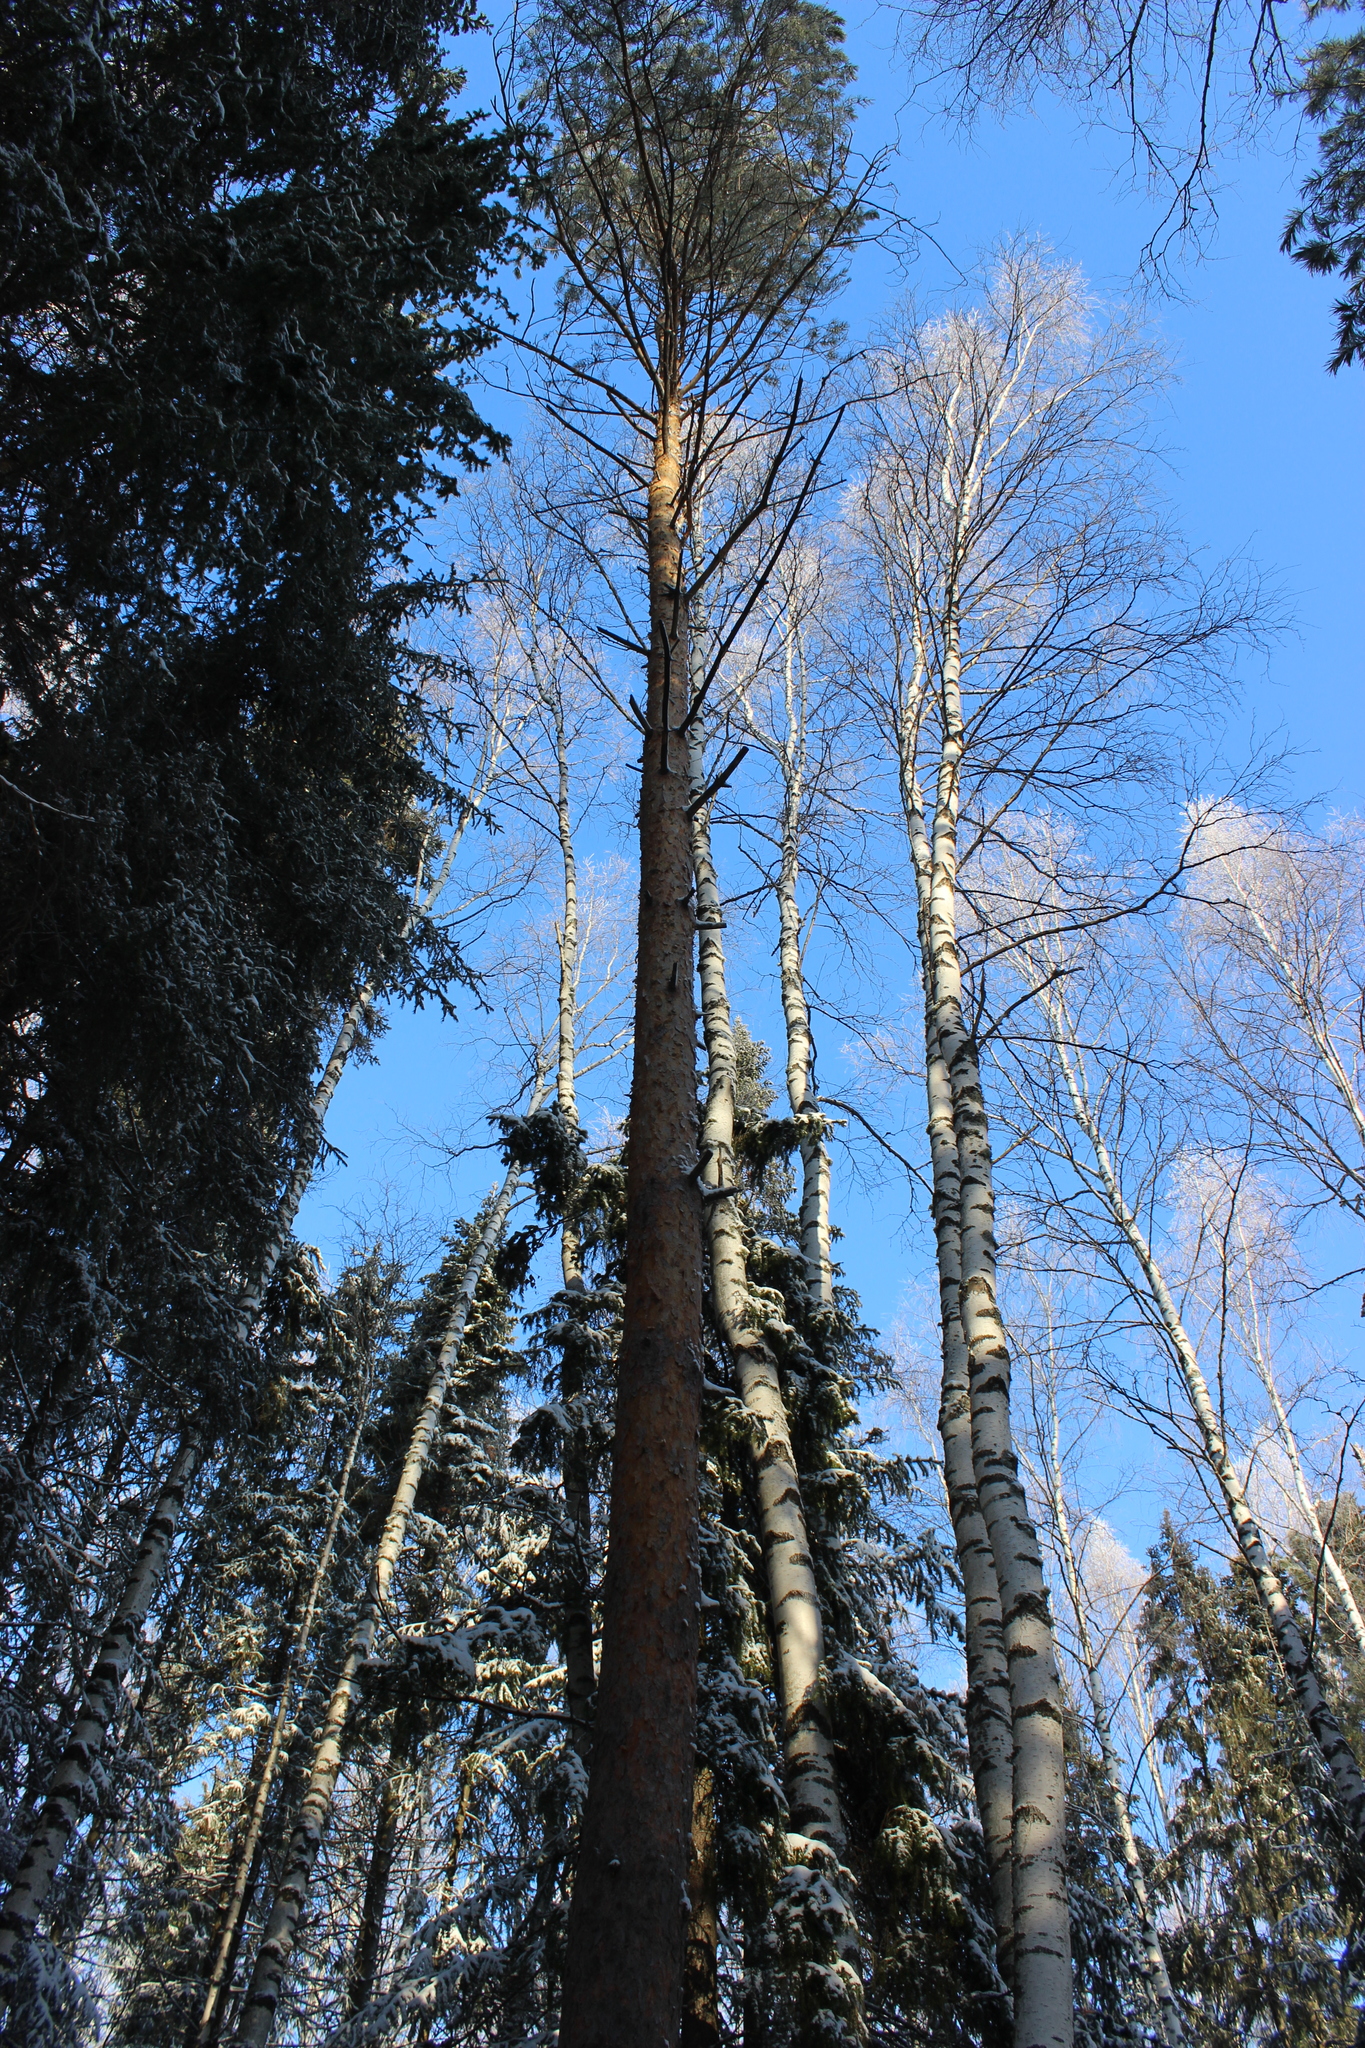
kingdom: Plantae
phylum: Tracheophyta
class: Pinopsida
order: Pinales
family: Pinaceae
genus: Pinus
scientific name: Pinus sylvestris
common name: Scots pine
